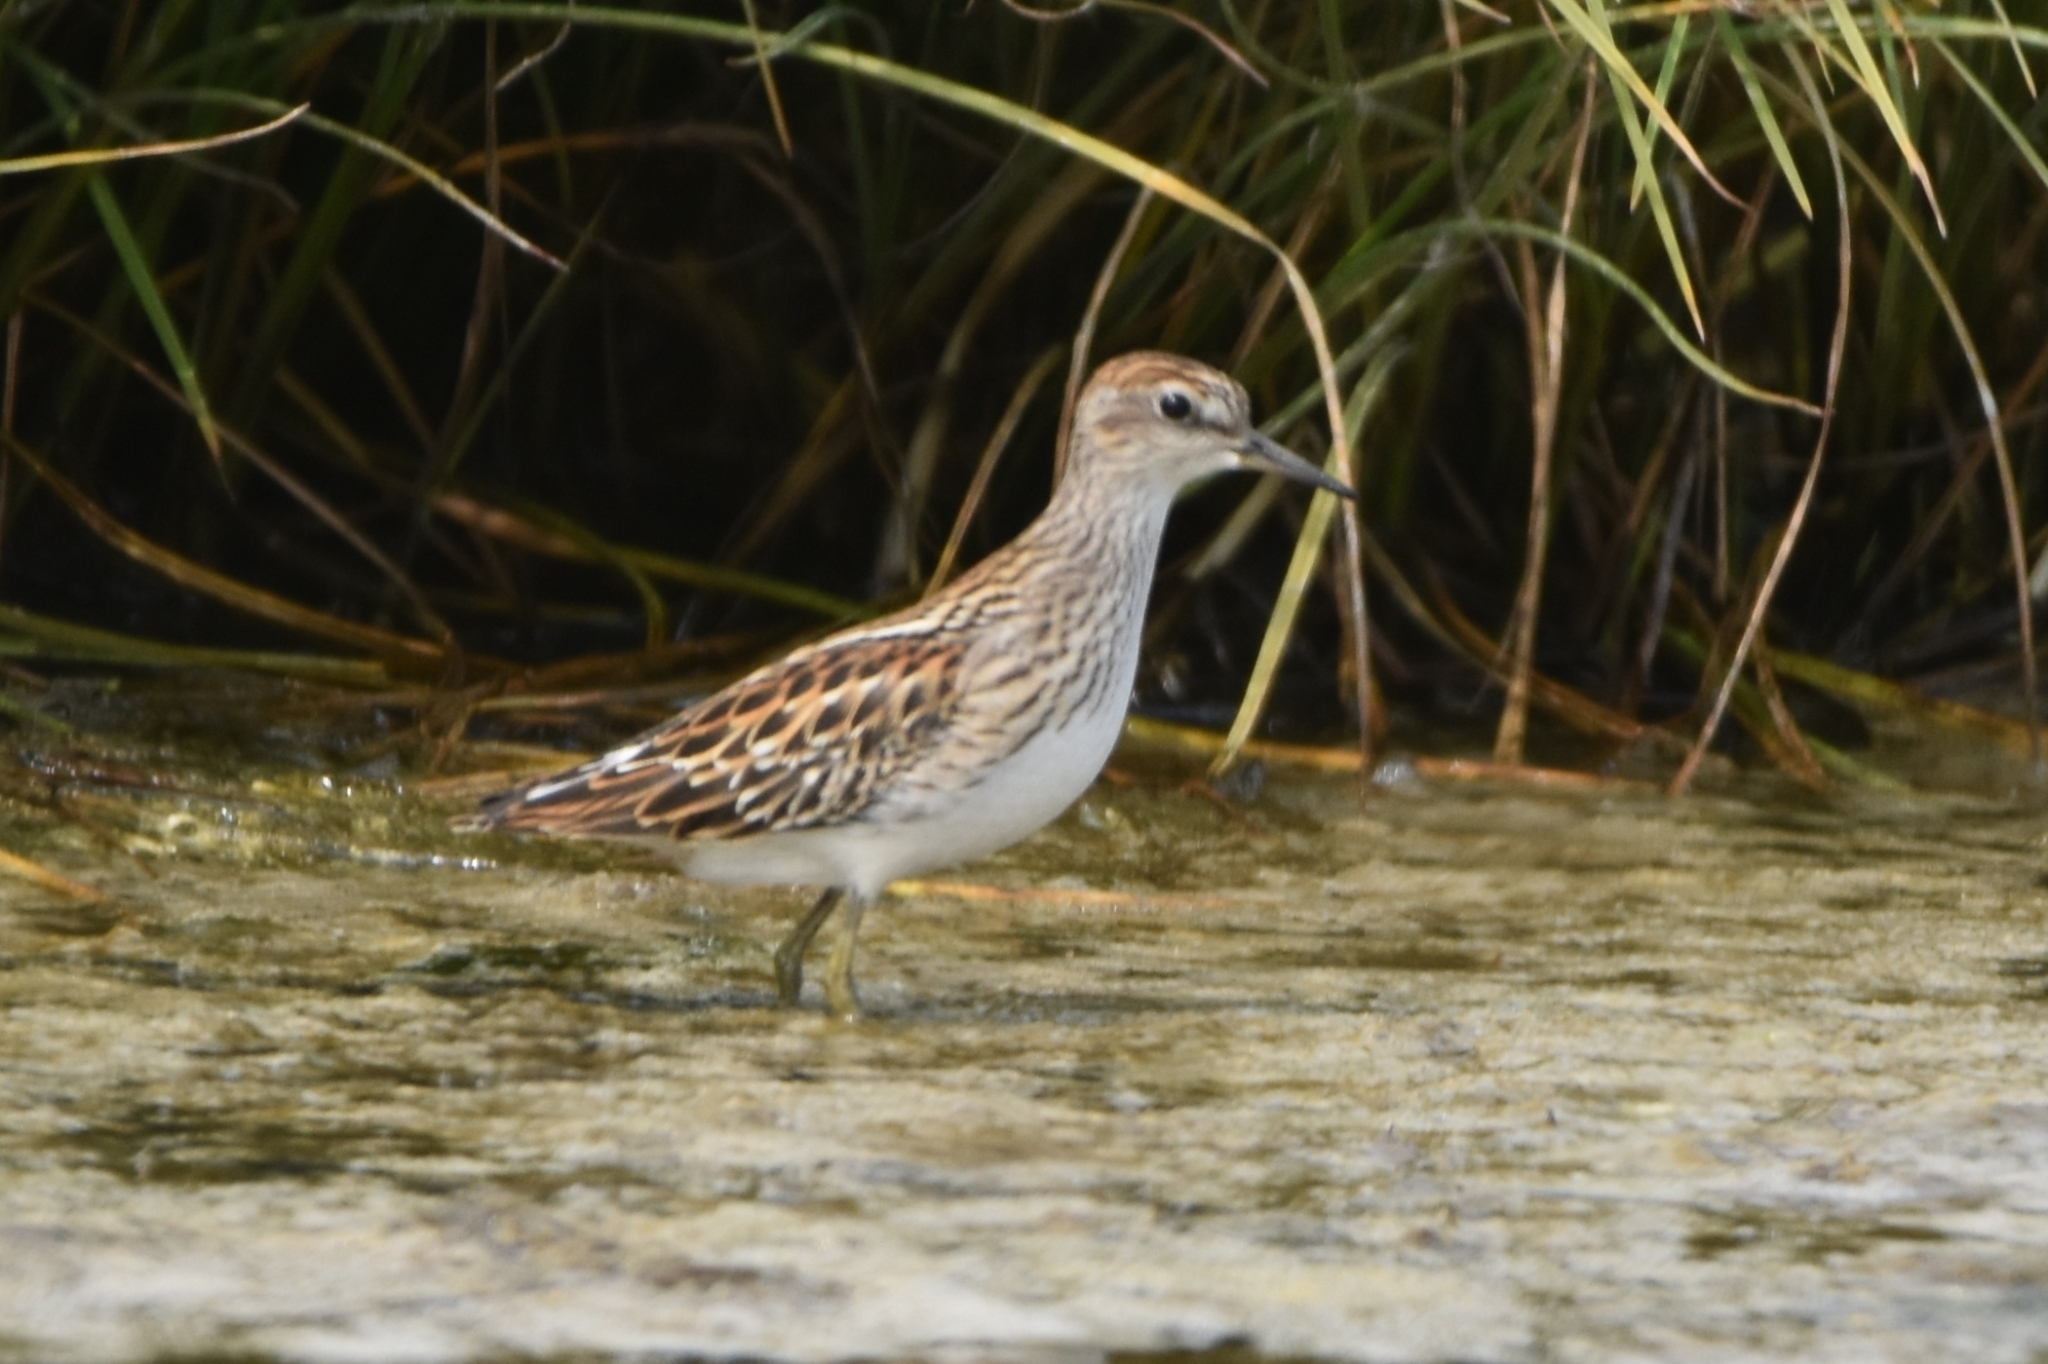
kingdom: Animalia
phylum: Chordata
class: Aves
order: Charadriiformes
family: Scolopacidae
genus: Calidris
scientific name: Calidris subminuta
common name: Long-toed stint
